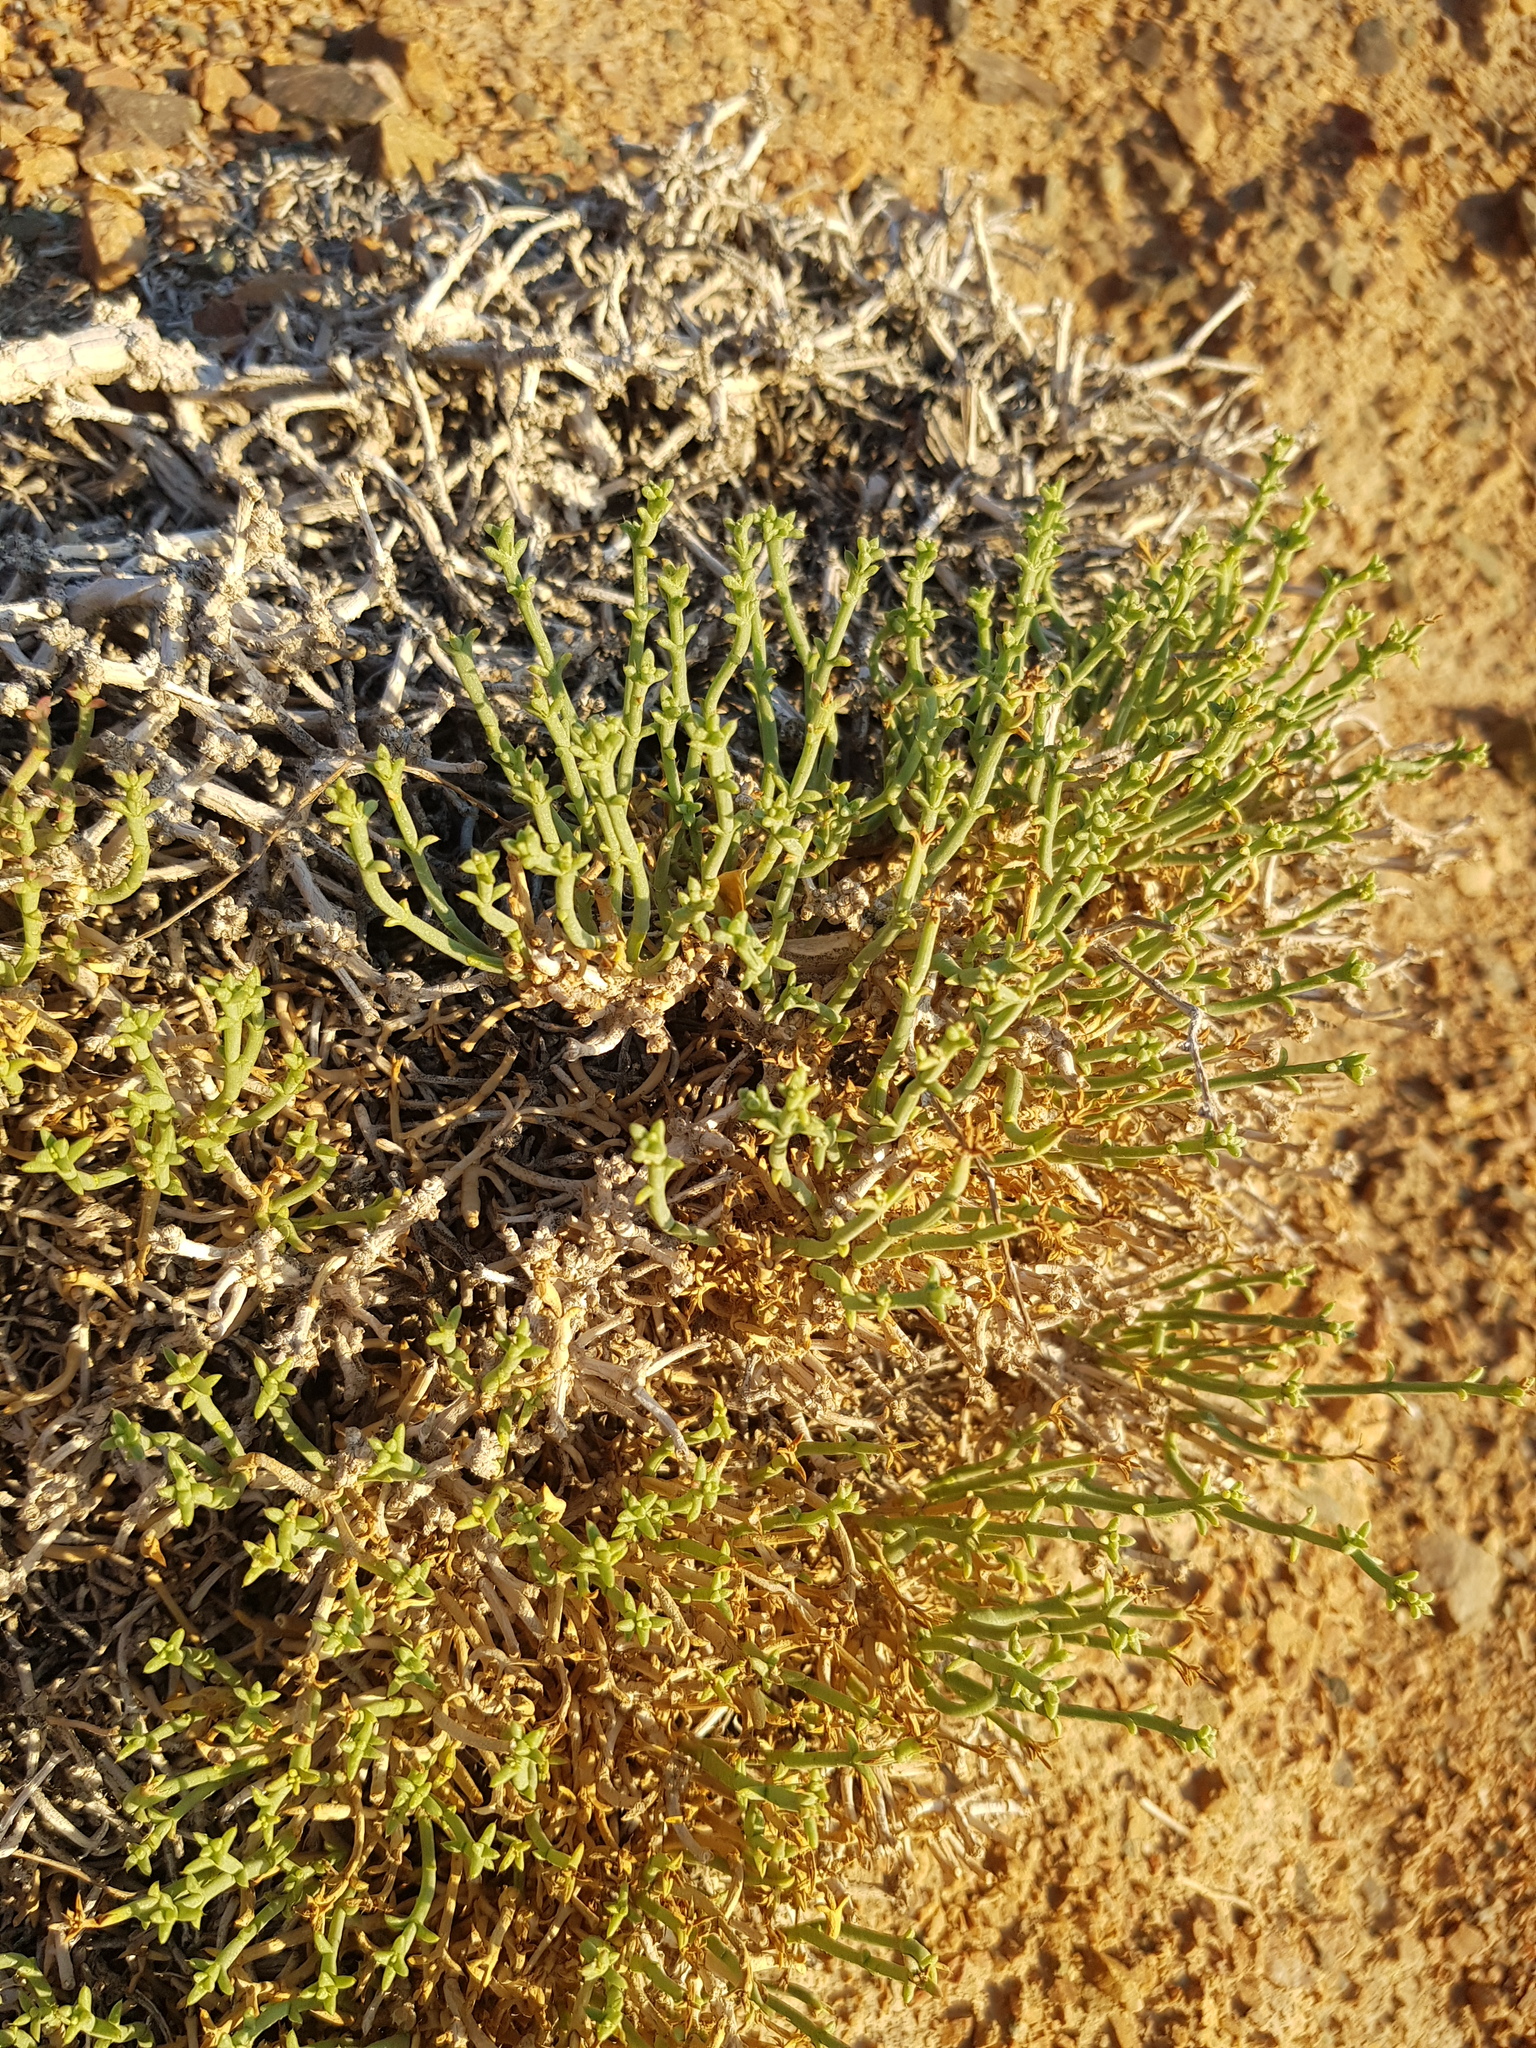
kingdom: Plantae
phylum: Tracheophyta
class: Magnoliopsida
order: Caryophyllales
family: Amaranthaceae
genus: Anabasis
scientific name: Anabasis brevifolia
